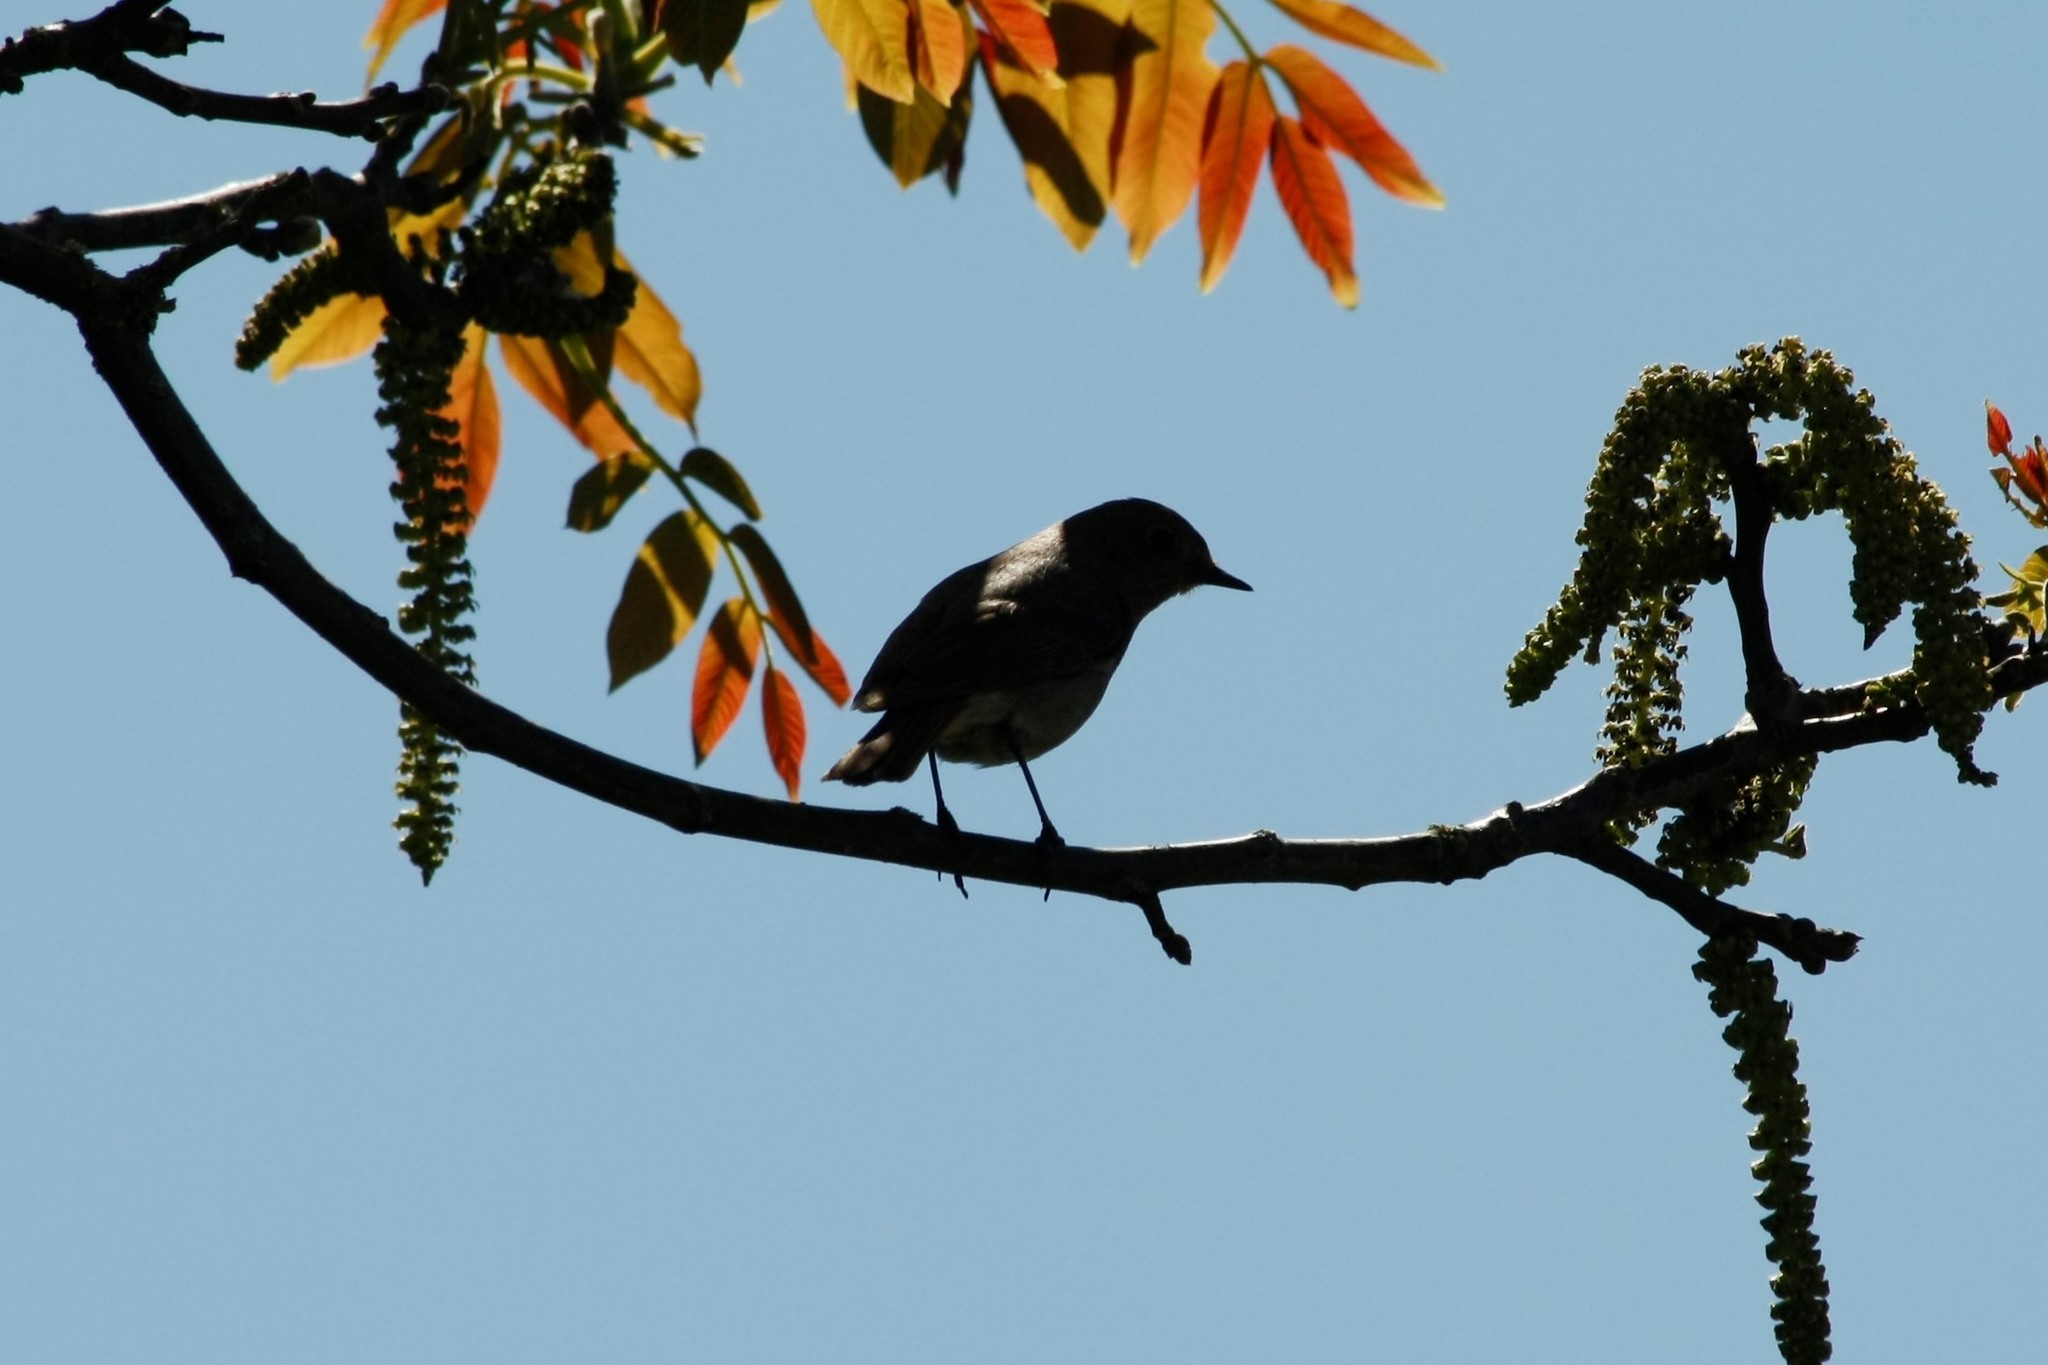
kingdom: Animalia
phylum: Chordata
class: Aves
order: Passeriformes
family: Muscicapidae
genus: Phoenicurus
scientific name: Phoenicurus ochruros
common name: Black redstart
